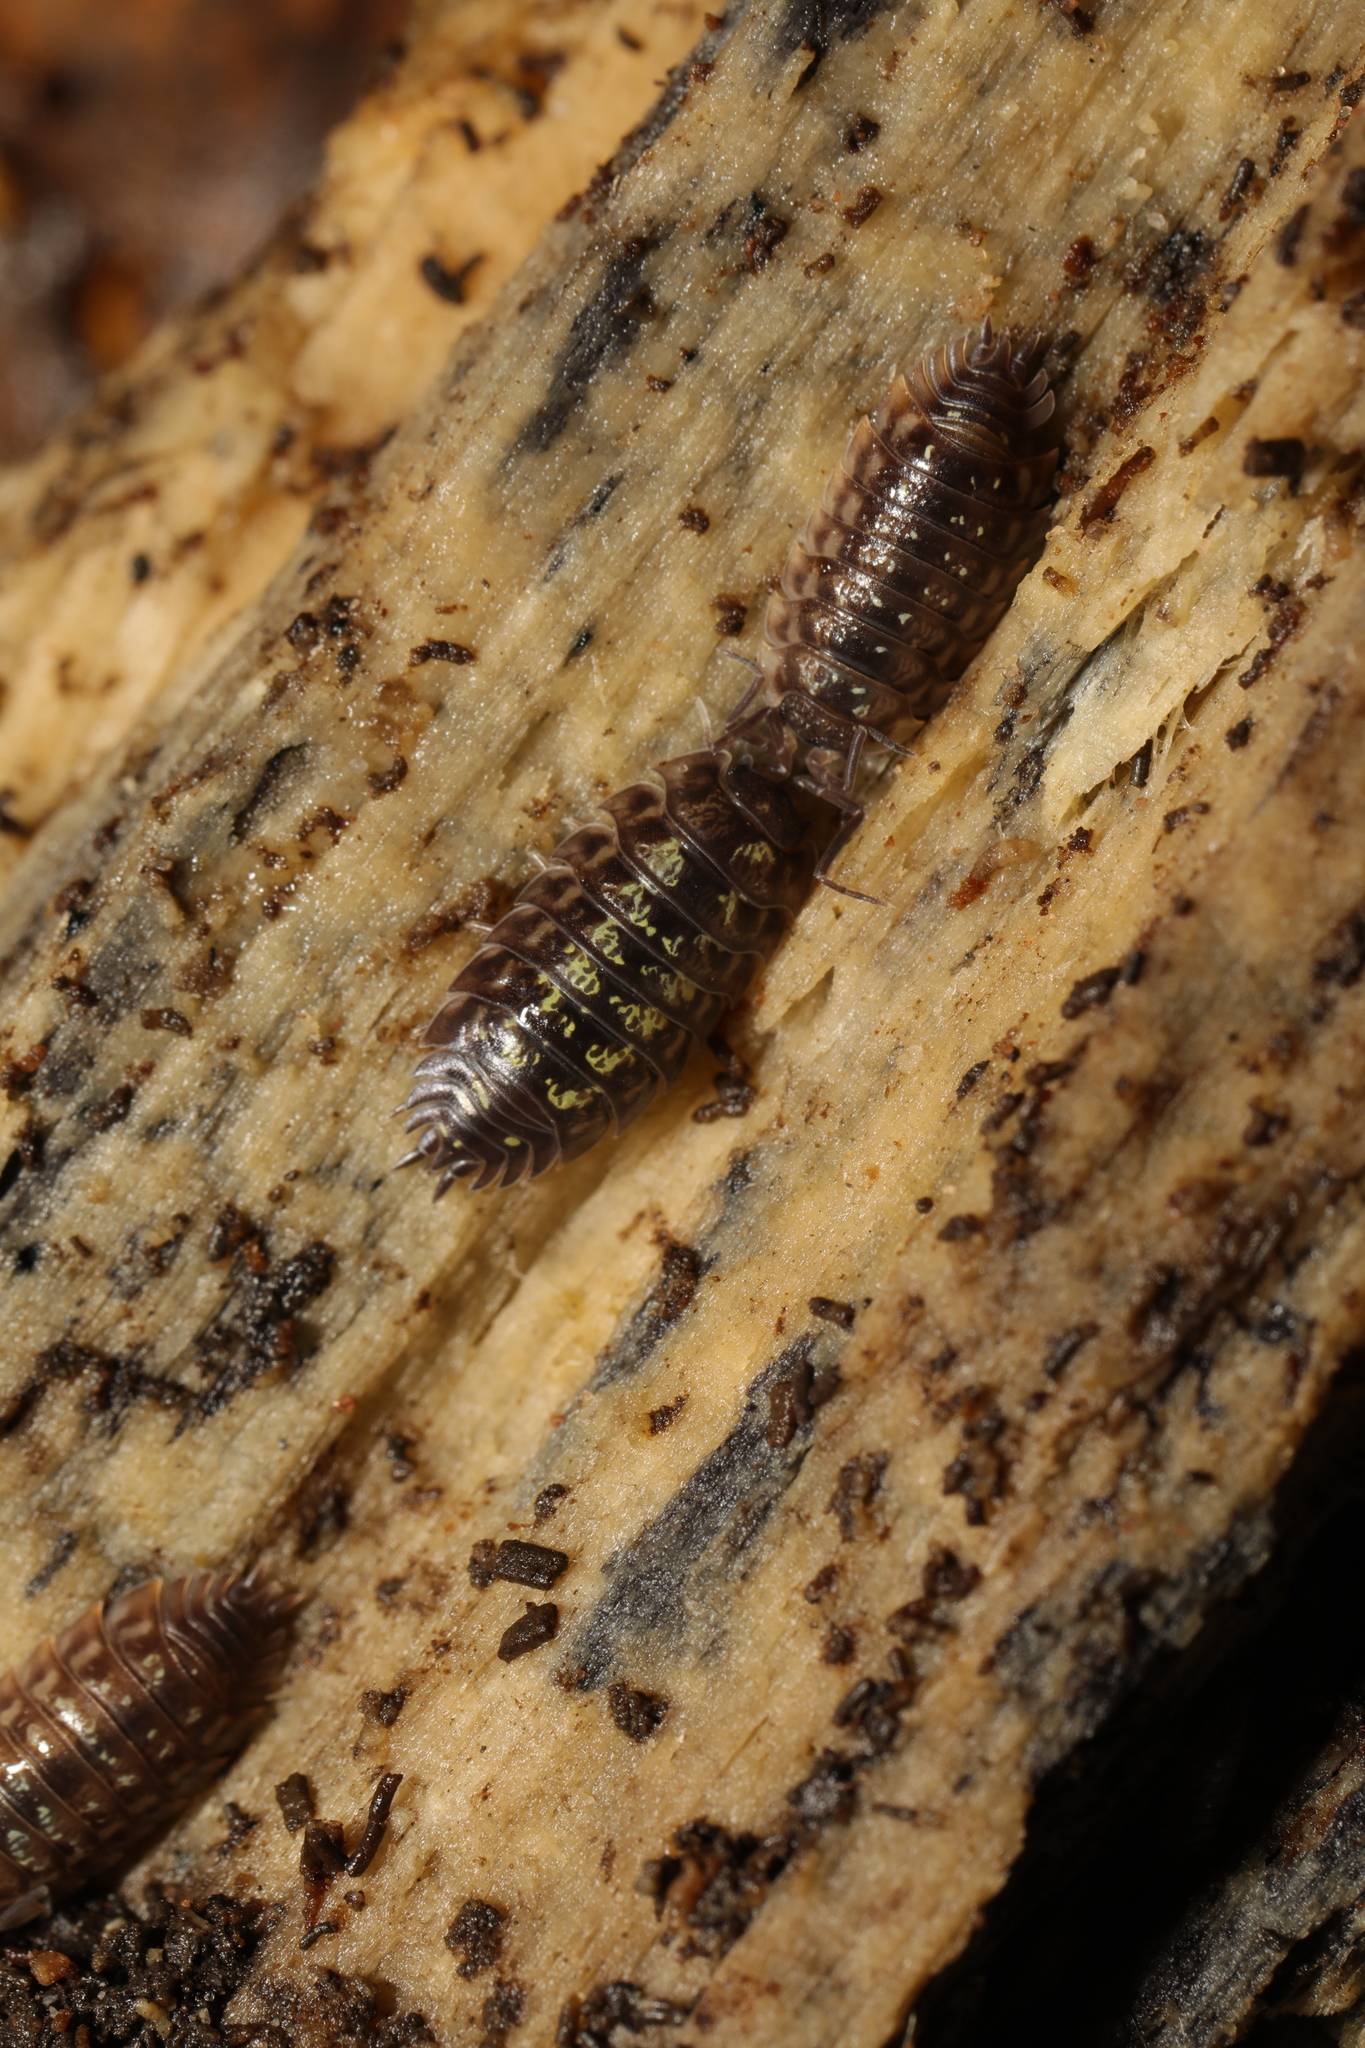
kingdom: Animalia
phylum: Arthropoda
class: Malacostraca
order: Isopoda
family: Oniscidae
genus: Oniscus
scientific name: Oniscus asellus
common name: Common shiny woodlouse
